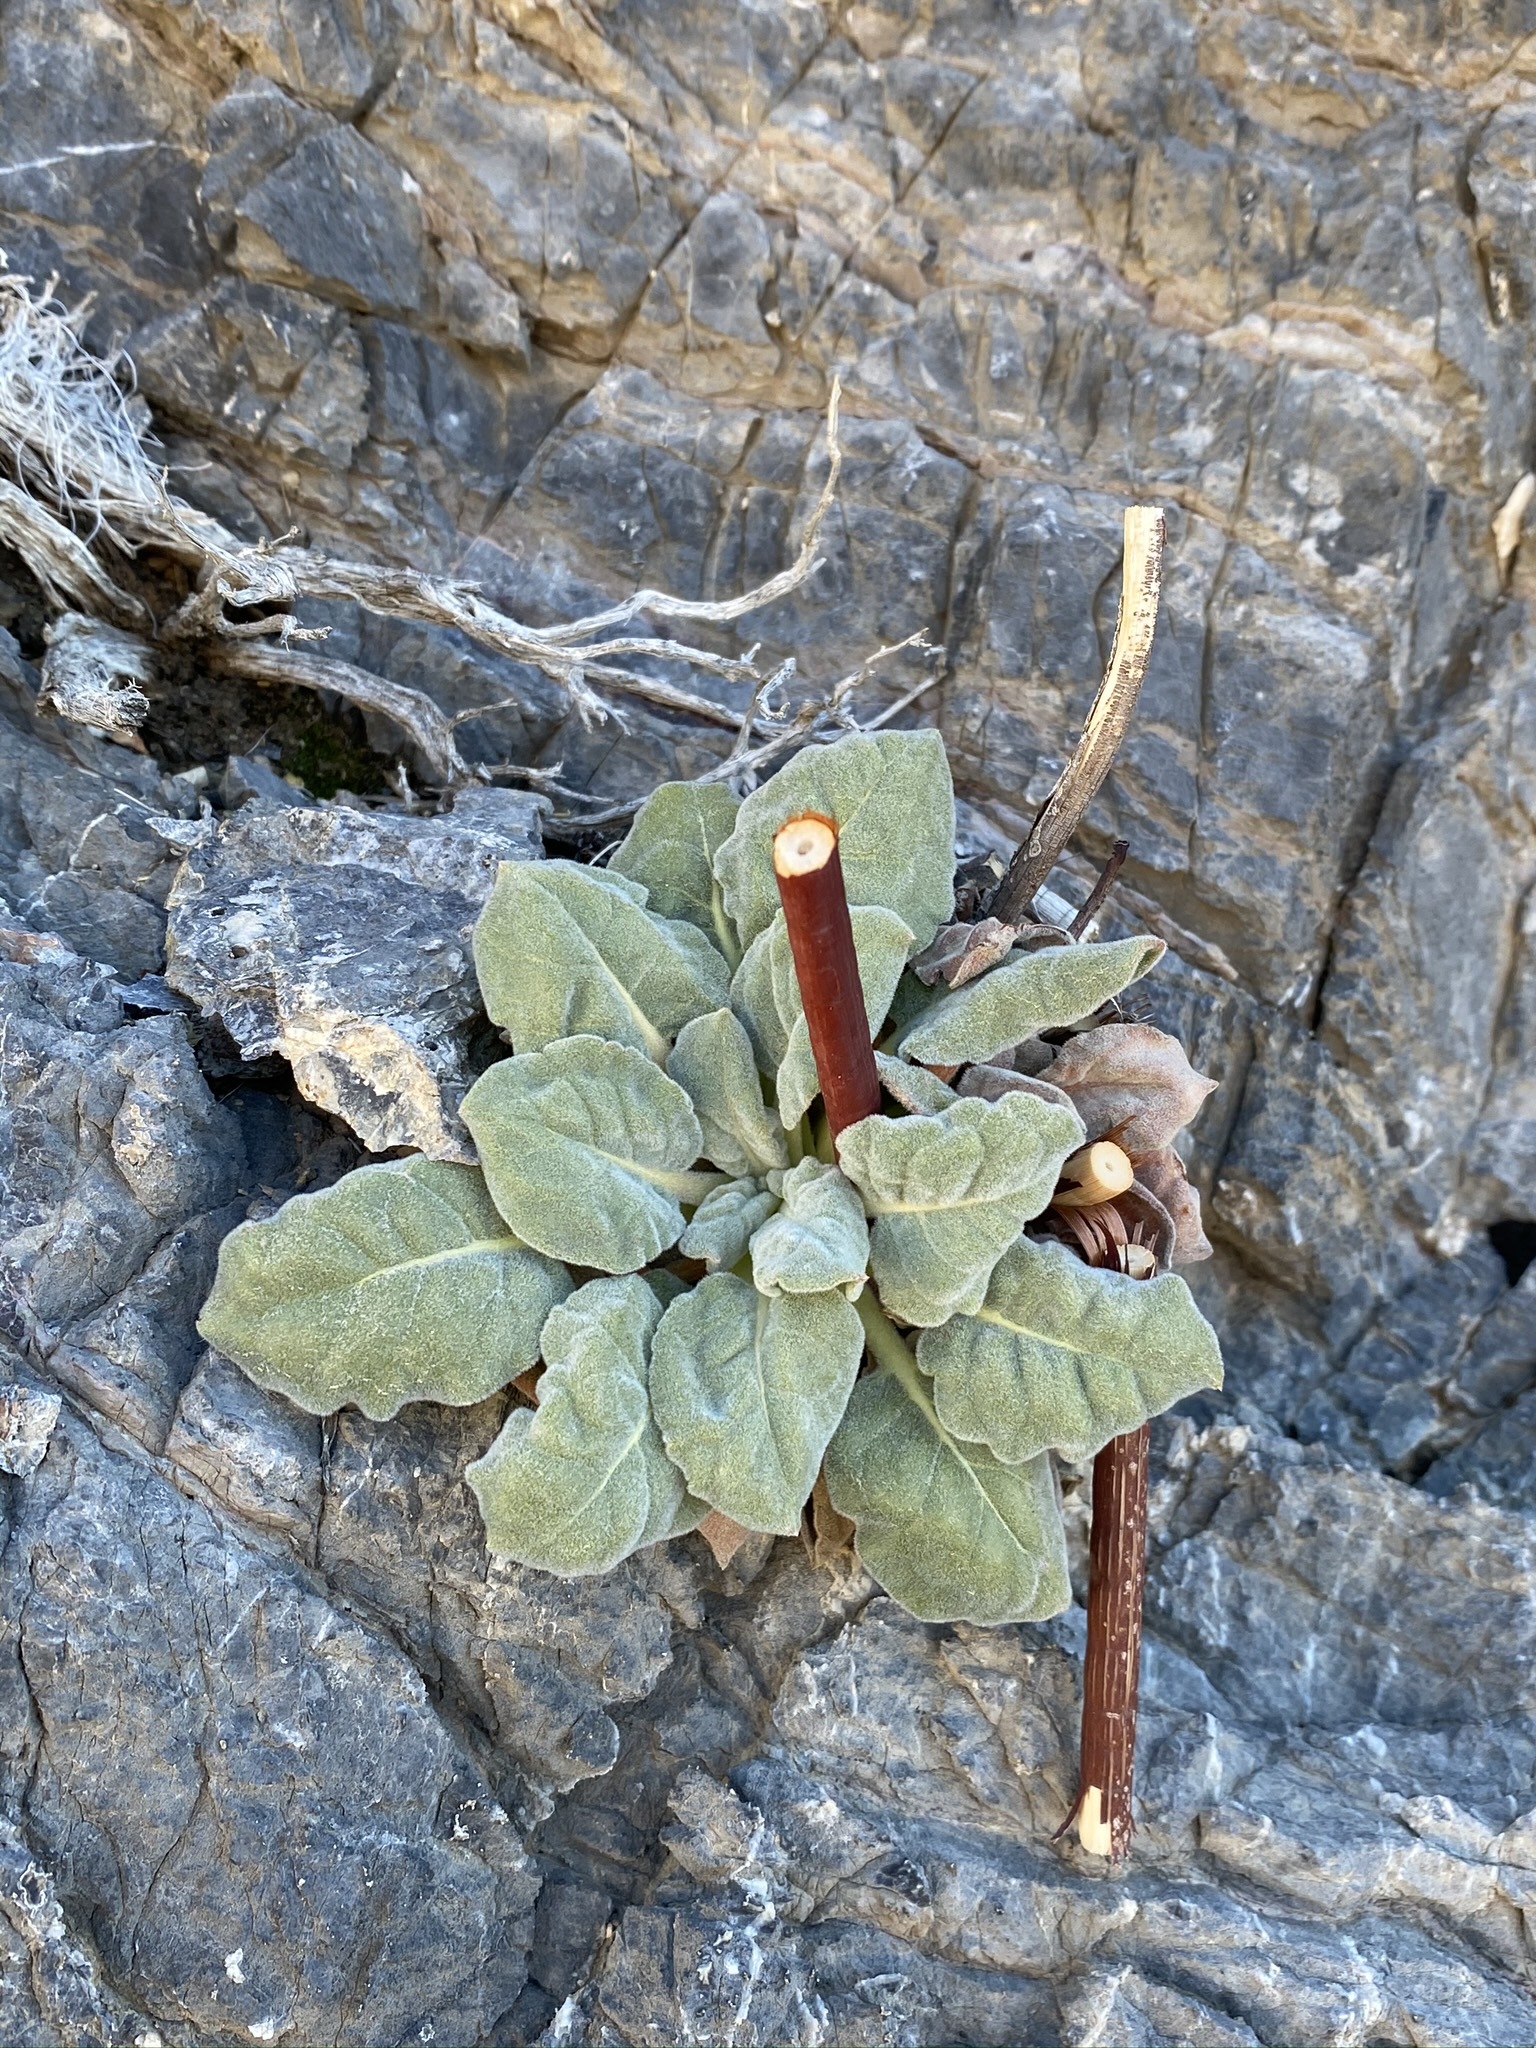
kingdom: Plantae
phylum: Tracheophyta
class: Magnoliopsida
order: Caryophyllales
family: Polygonaceae
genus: Eriogonum
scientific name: Eriogonum intrafractum
